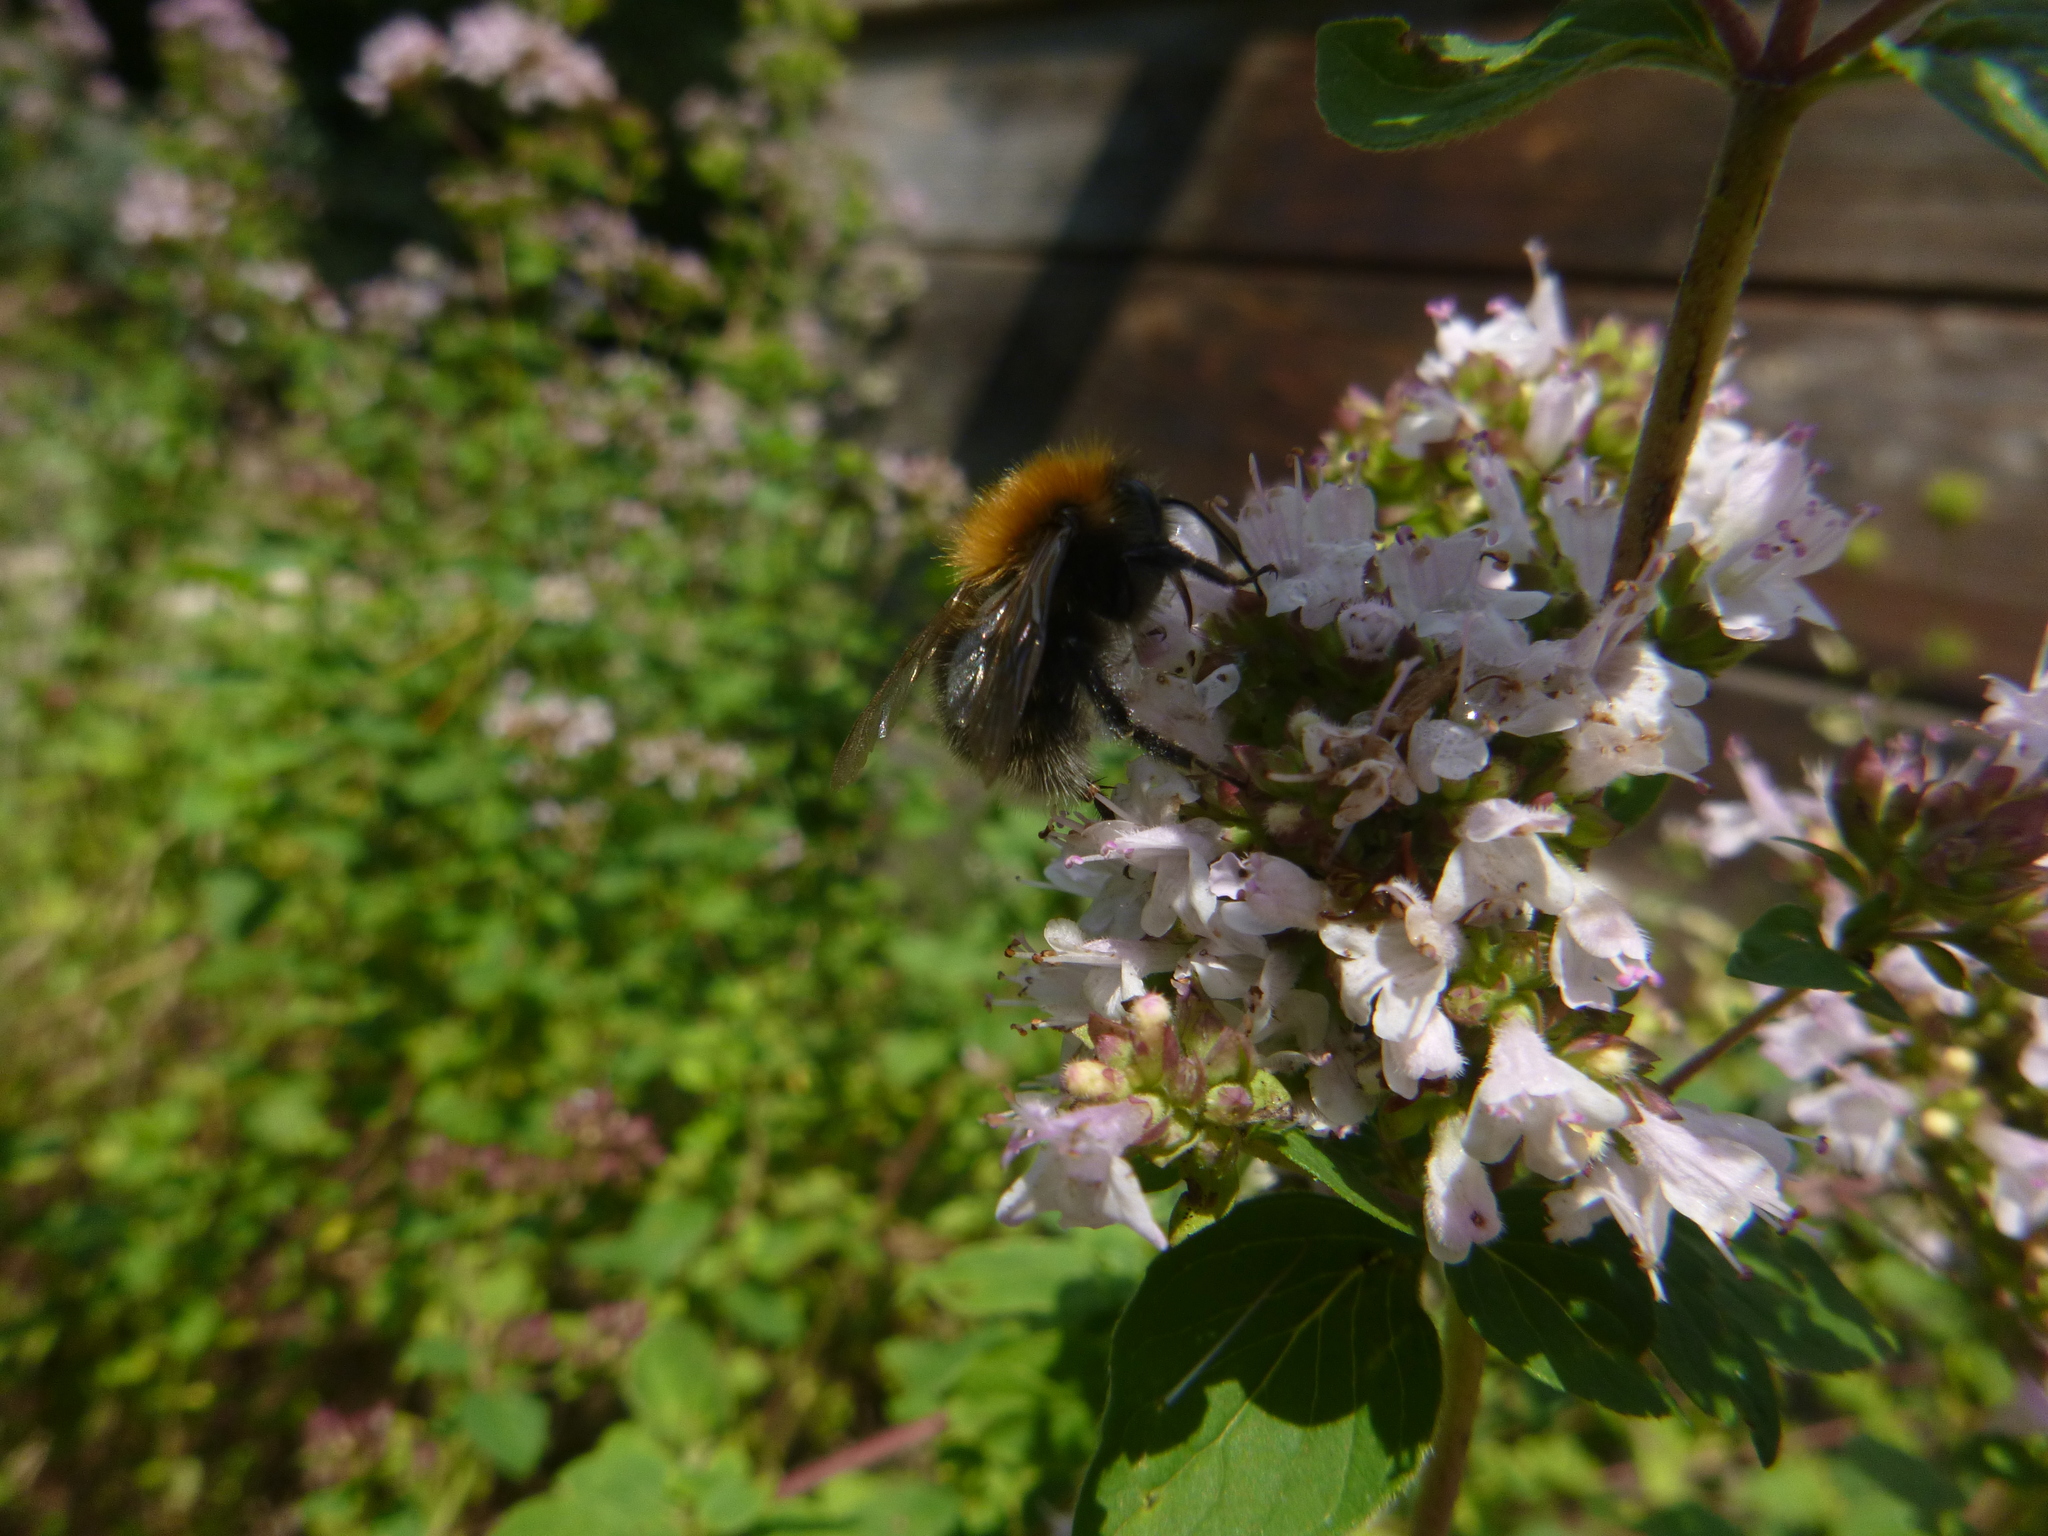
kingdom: Animalia
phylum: Arthropoda
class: Insecta
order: Hymenoptera
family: Apidae
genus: Bombus
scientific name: Bombus hypnorum
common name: New garden bumblebee
